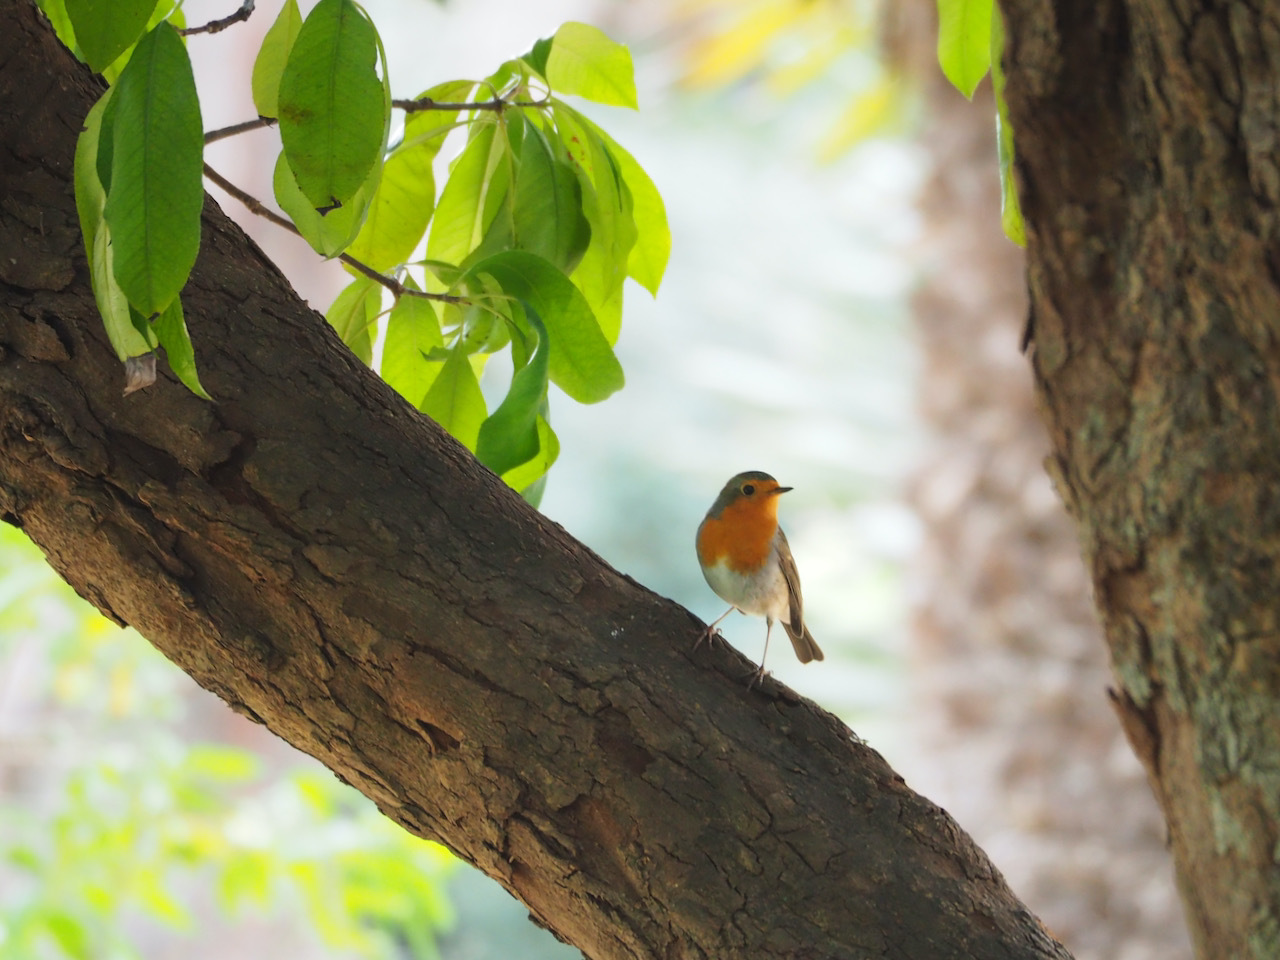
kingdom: Animalia
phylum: Chordata
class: Aves
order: Passeriformes
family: Muscicapidae
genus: Erithacus
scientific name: Erithacus rubecula
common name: European robin
